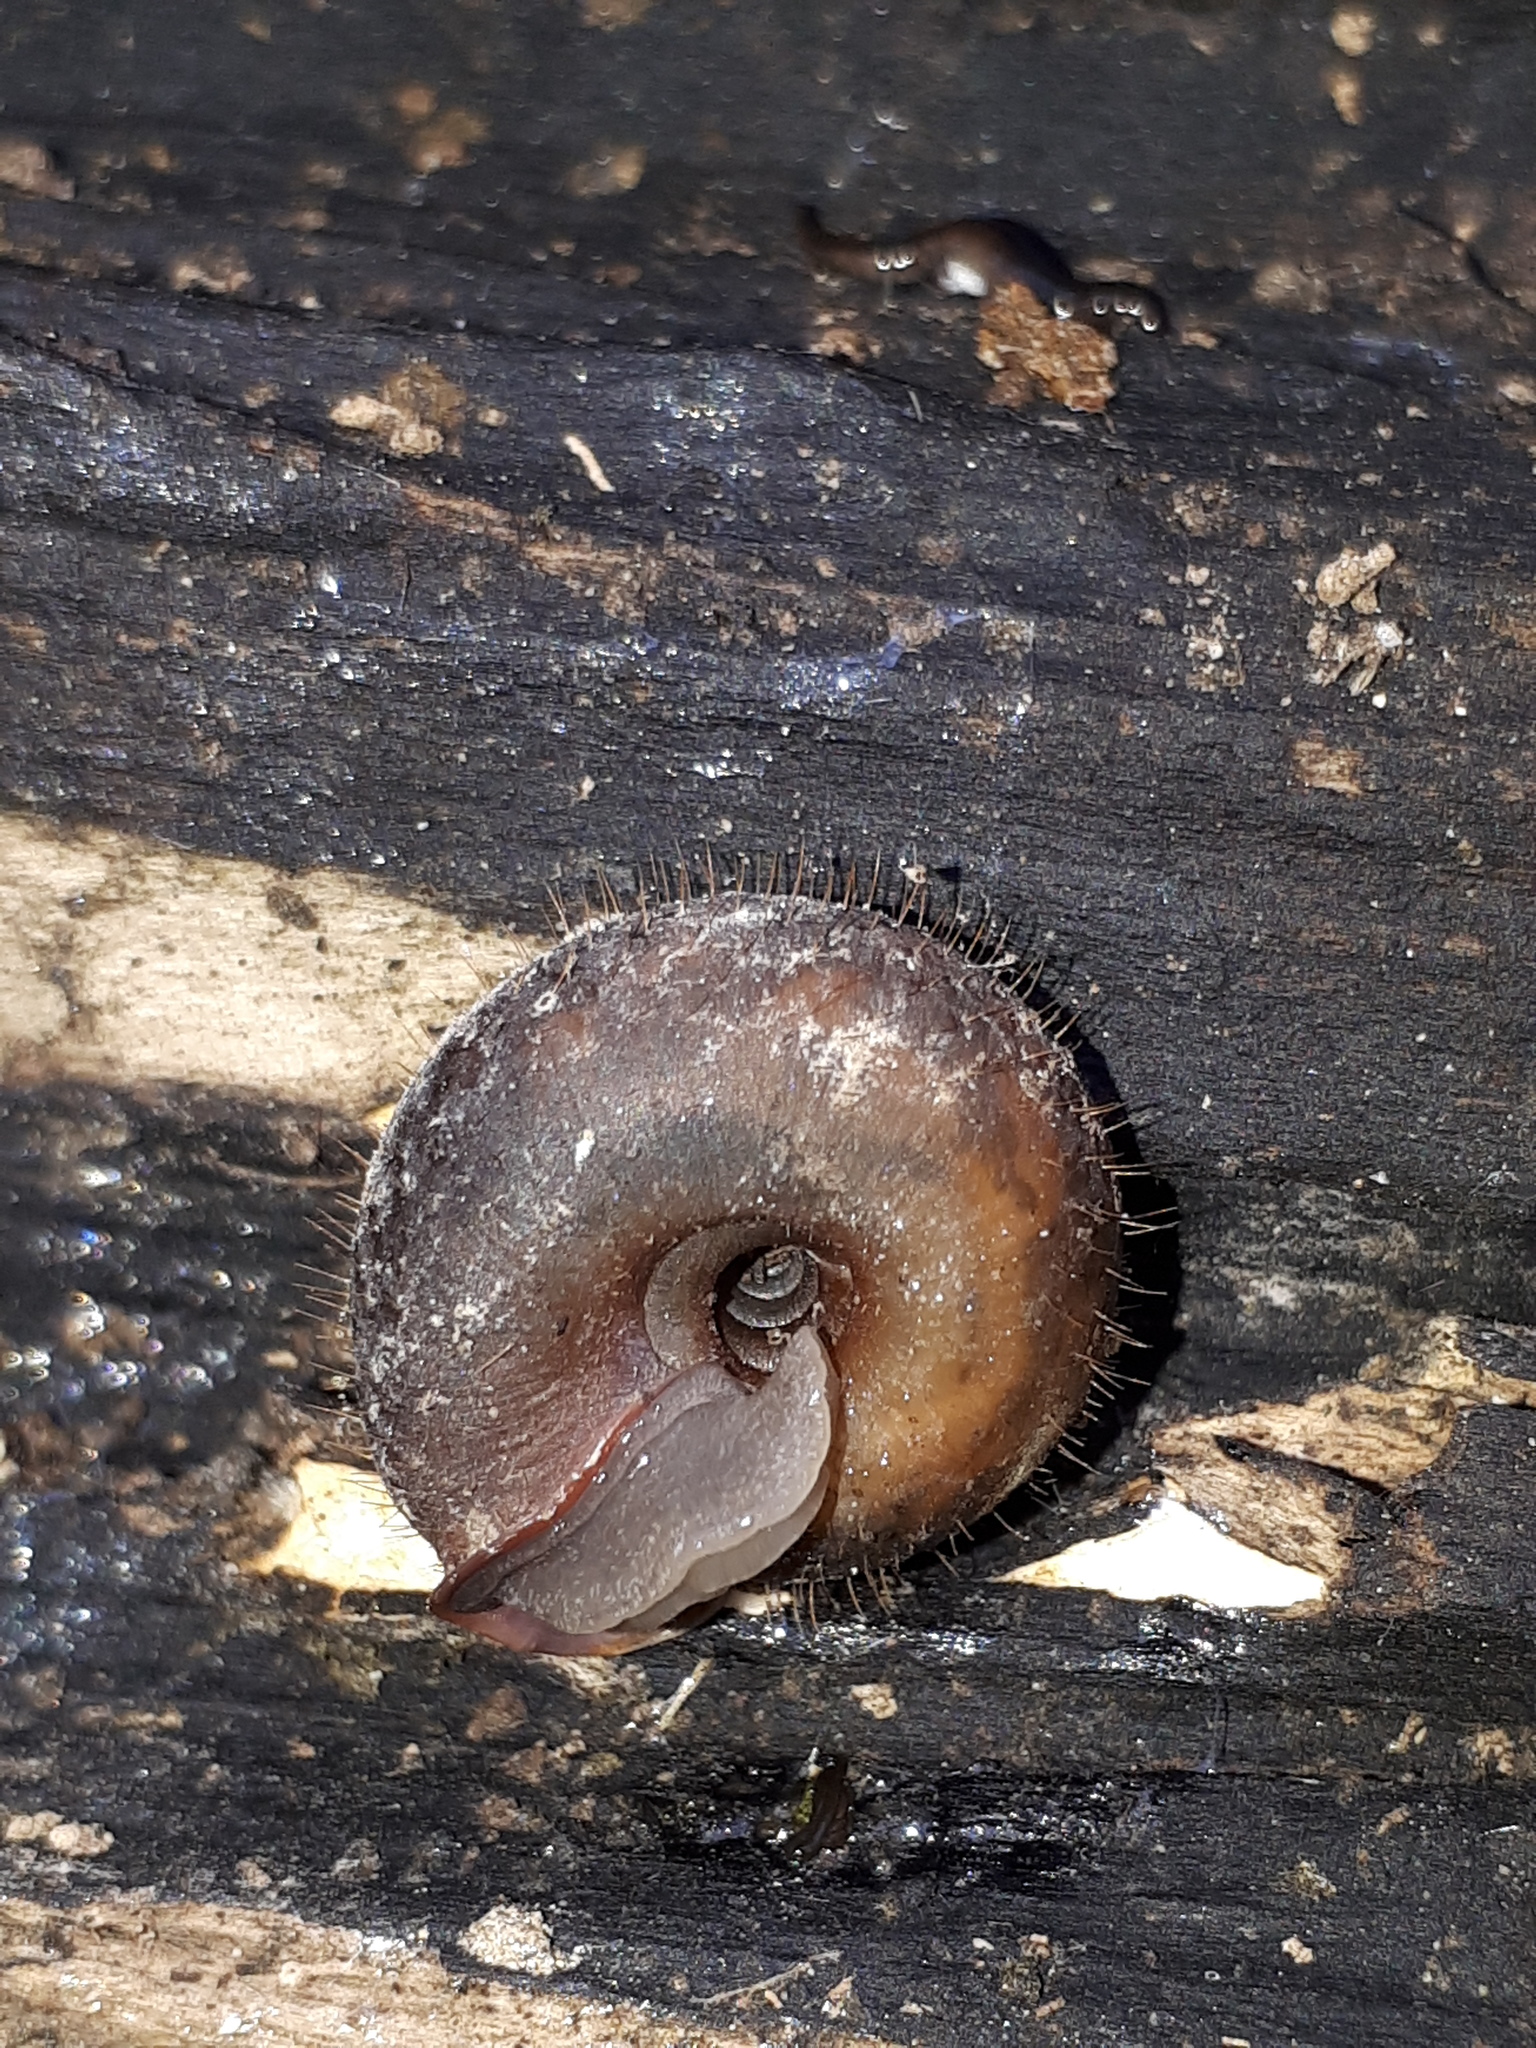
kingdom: Animalia
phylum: Mollusca
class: Gastropoda
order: Stylommatophora
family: Helicodontidae
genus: Helicodonta
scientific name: Helicodonta obvoluta
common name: Cheese snail
